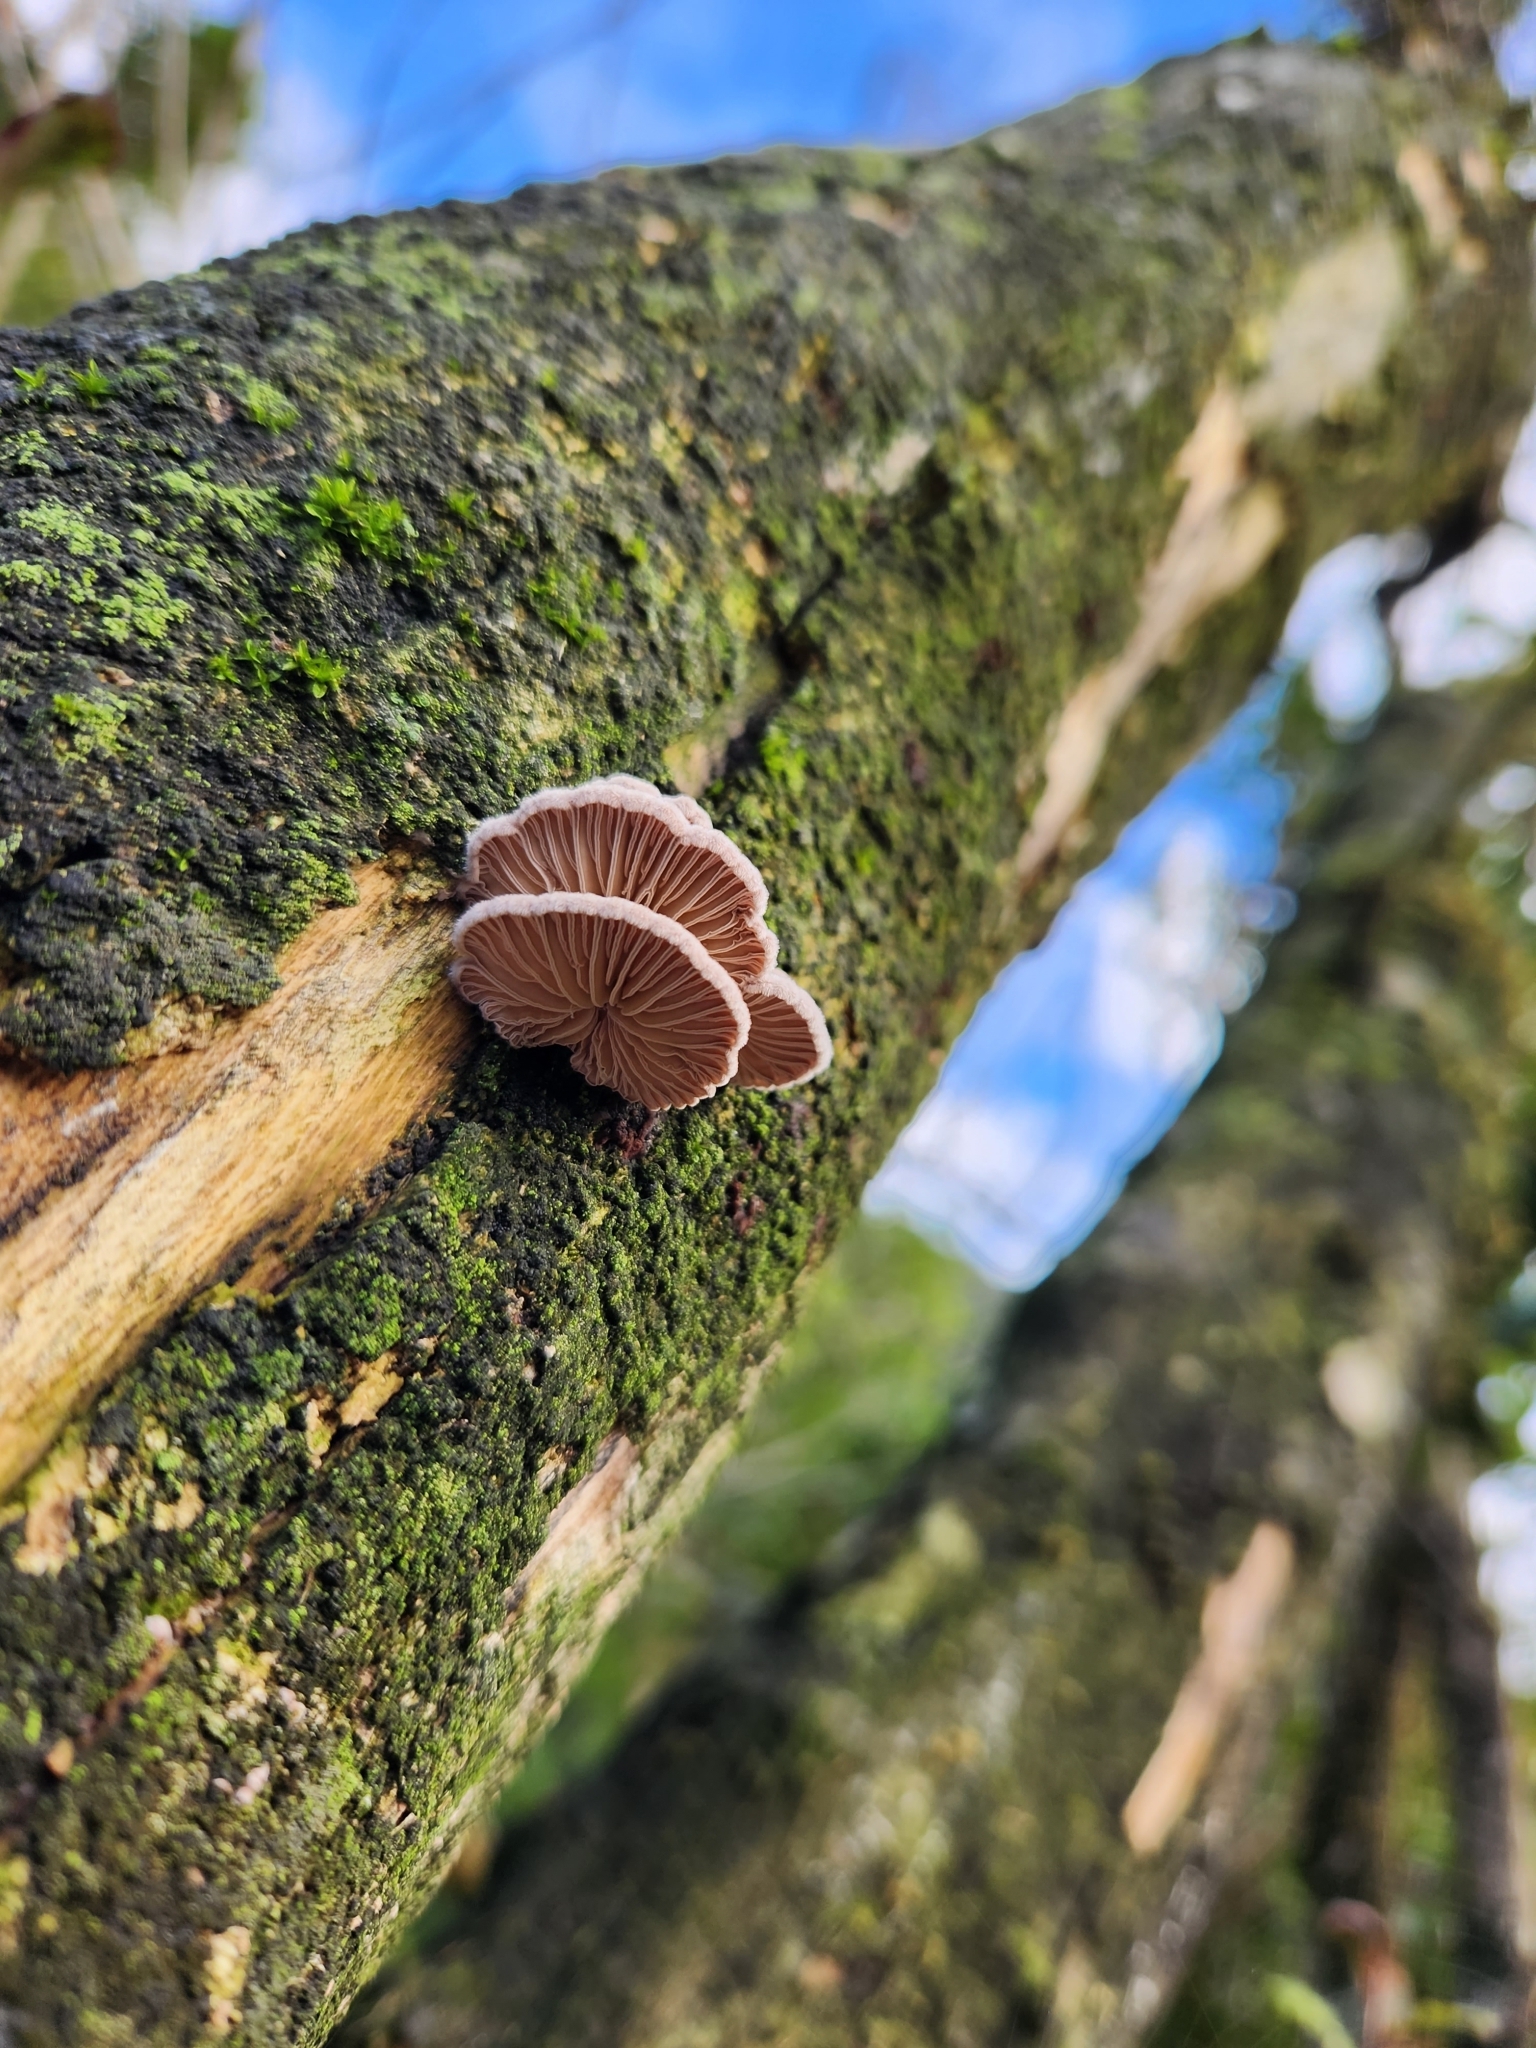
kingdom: Fungi
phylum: Basidiomycota
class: Agaricomycetes
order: Agaricales
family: Schizophyllaceae
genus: Schizophyllum
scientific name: Schizophyllum commune
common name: Common porecrust
